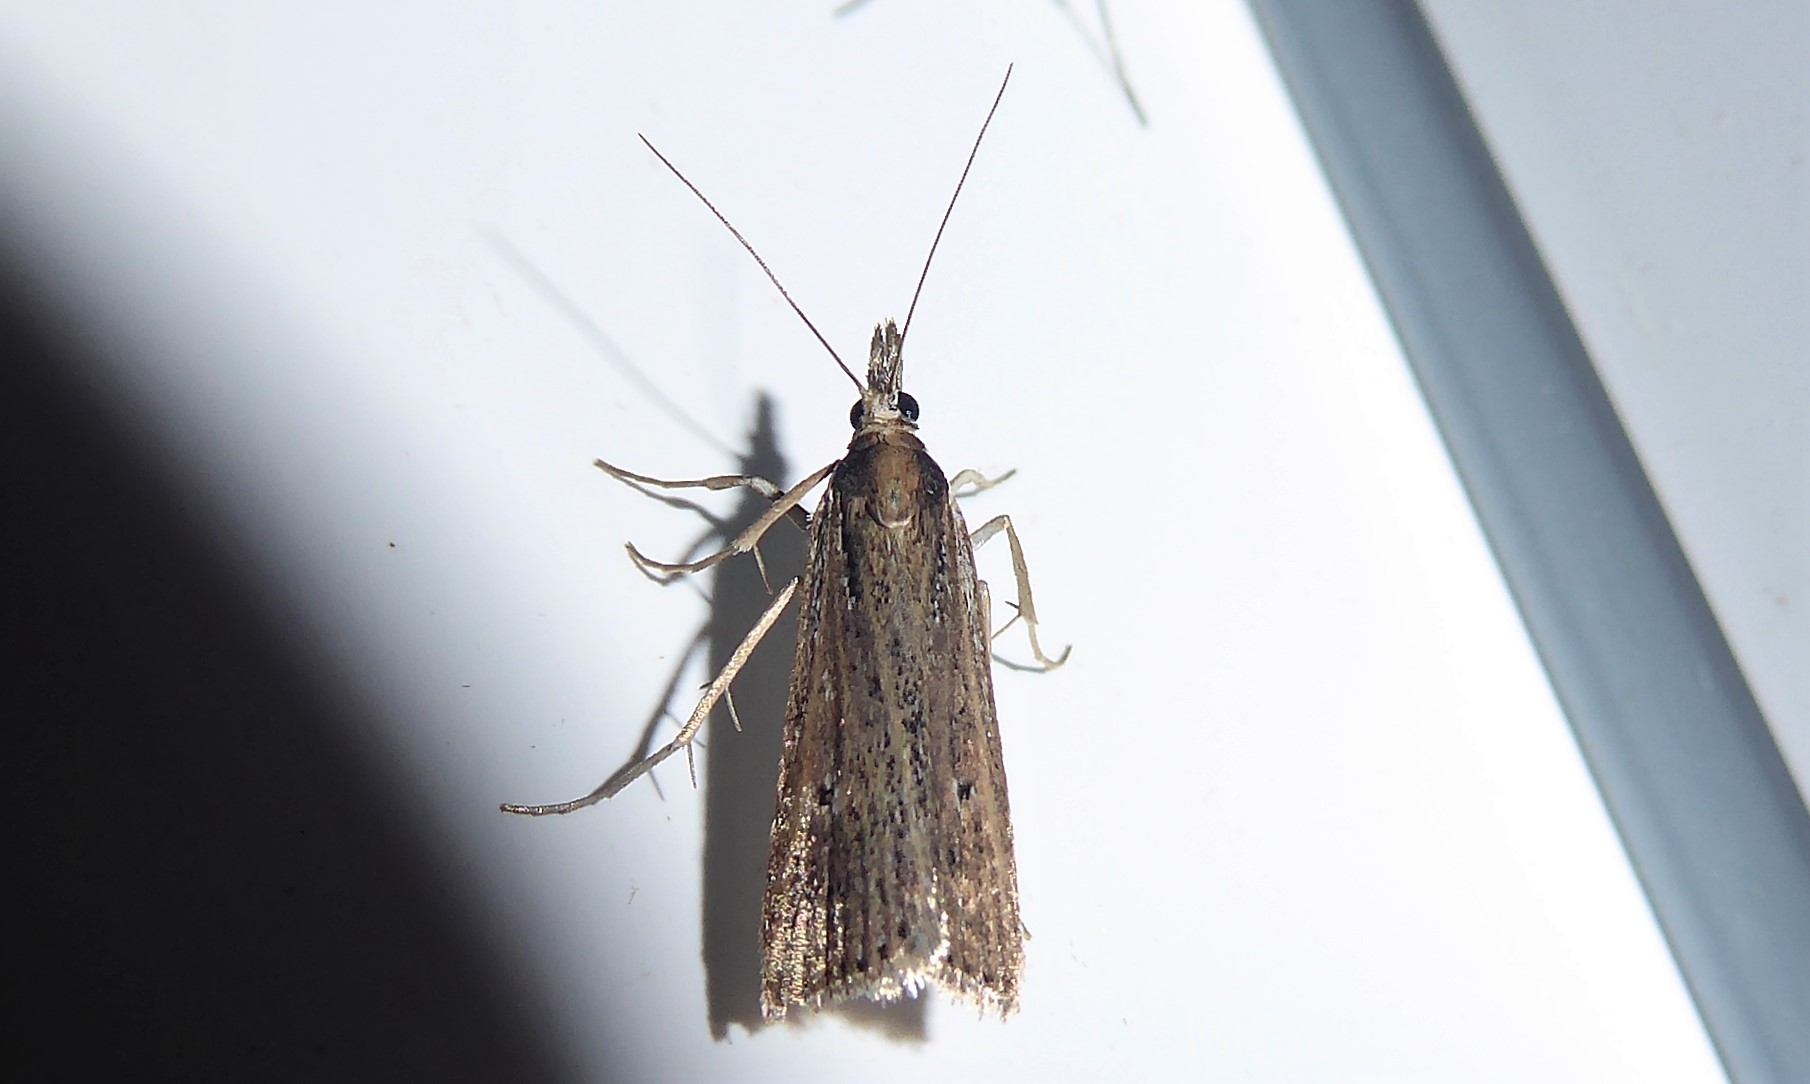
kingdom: Animalia
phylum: Arthropoda
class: Insecta
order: Lepidoptera
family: Crambidae
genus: Eudonia
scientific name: Eudonia sabulosella
